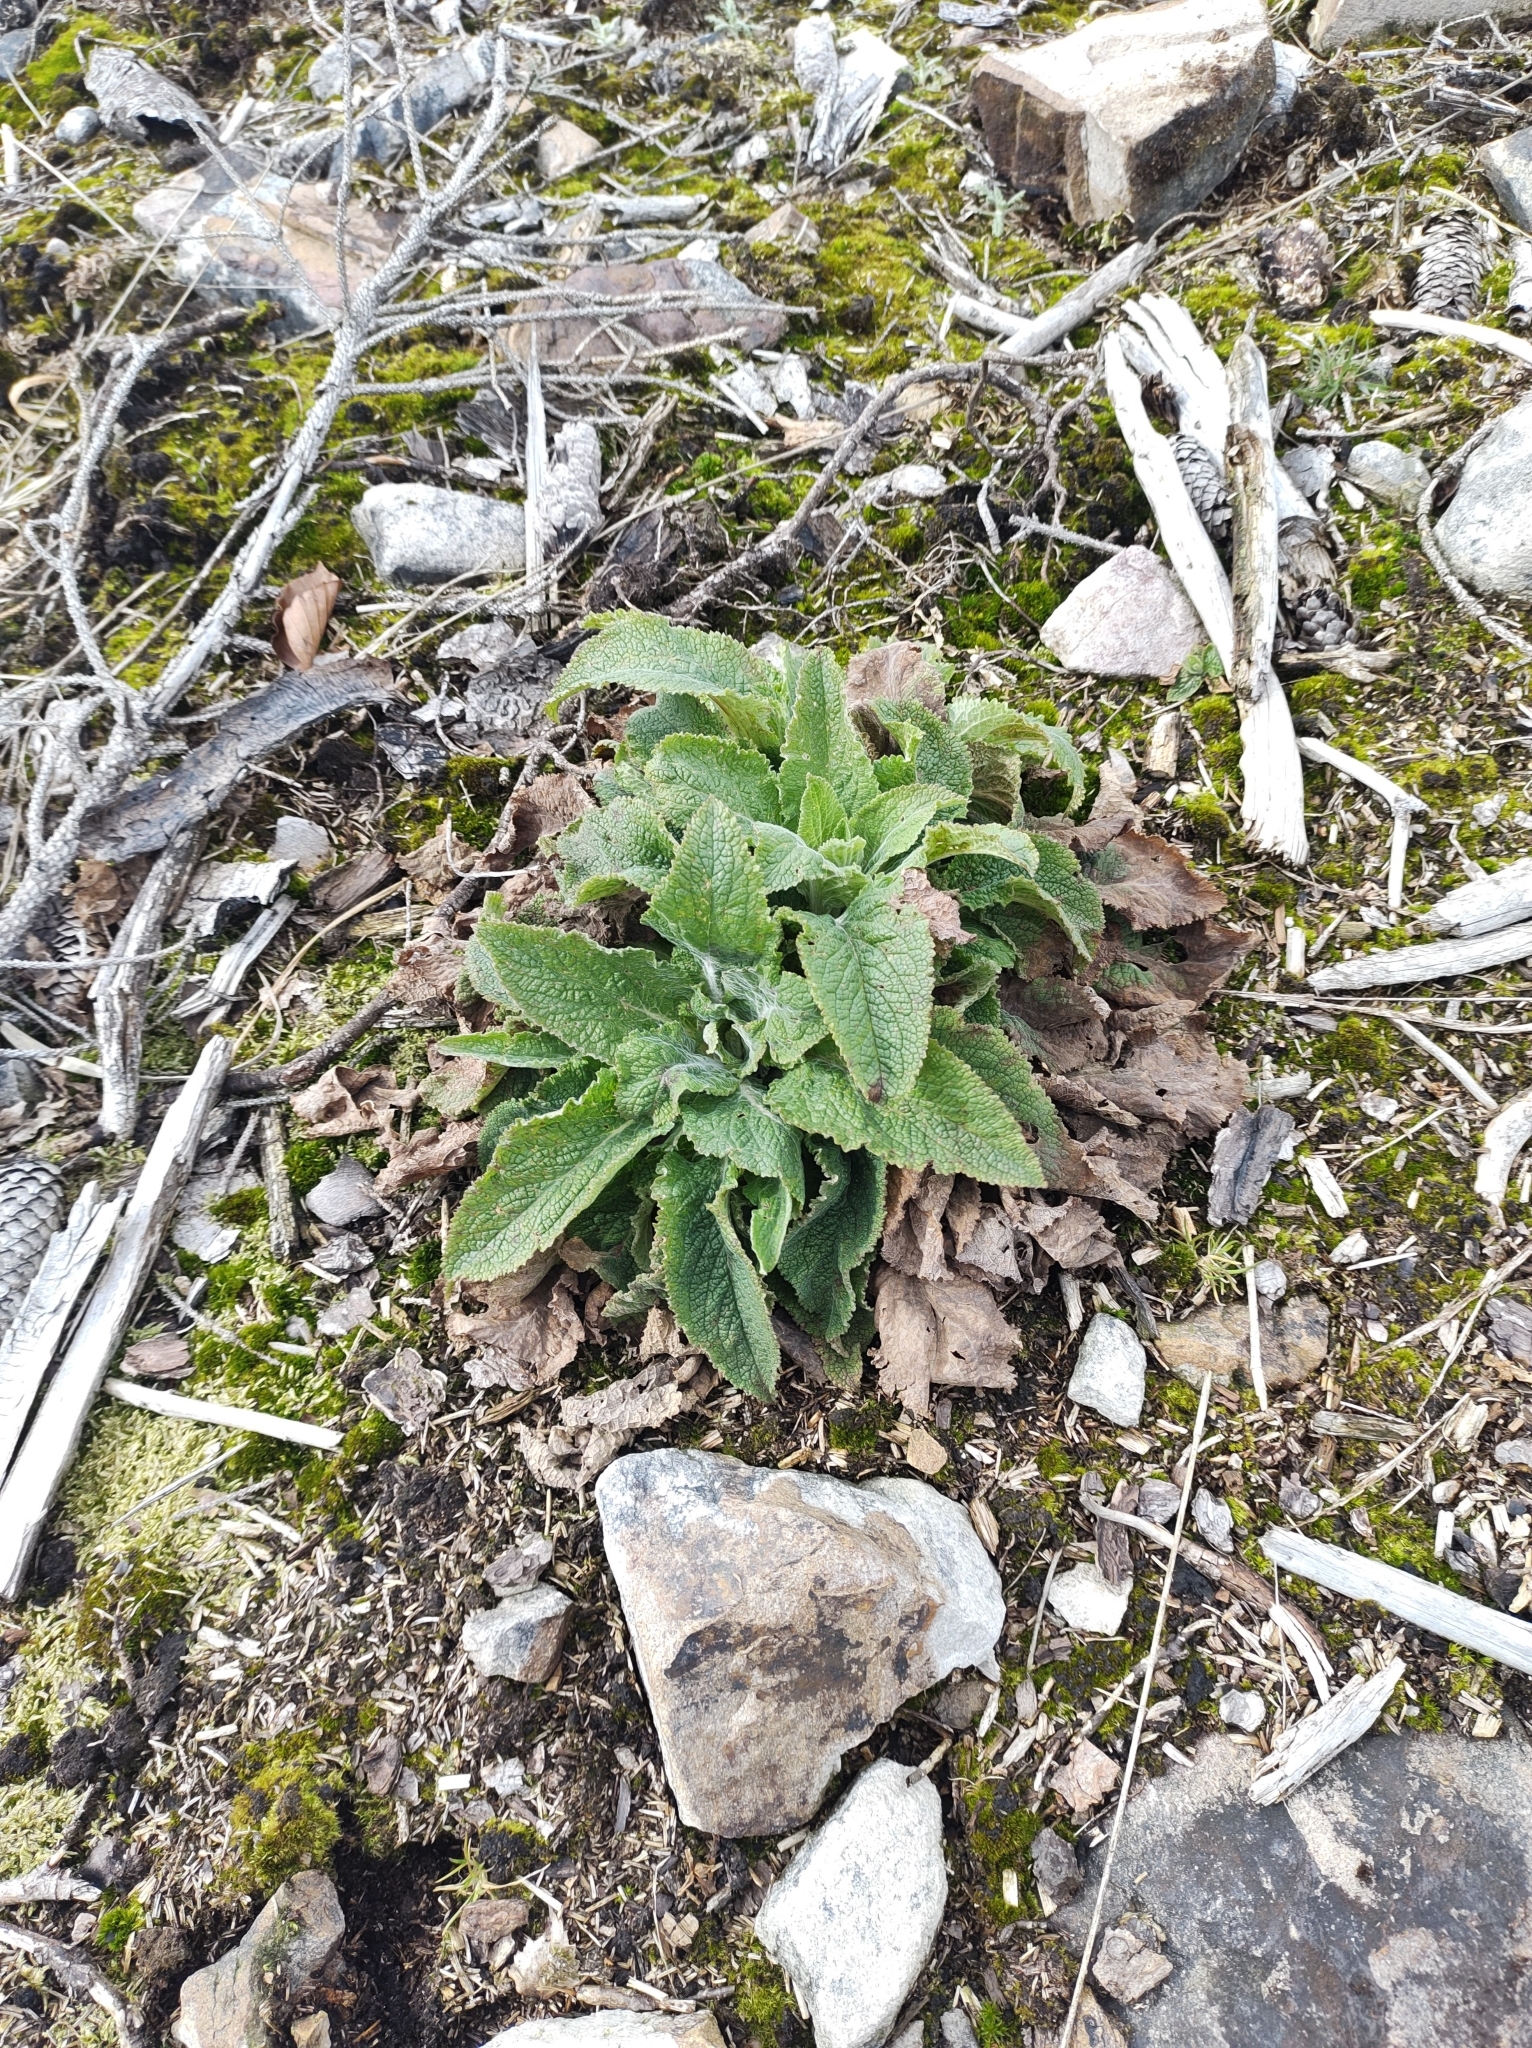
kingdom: Plantae
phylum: Tracheophyta
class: Magnoliopsida
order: Lamiales
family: Plantaginaceae
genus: Digitalis
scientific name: Digitalis purpurea
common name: Foxglove
